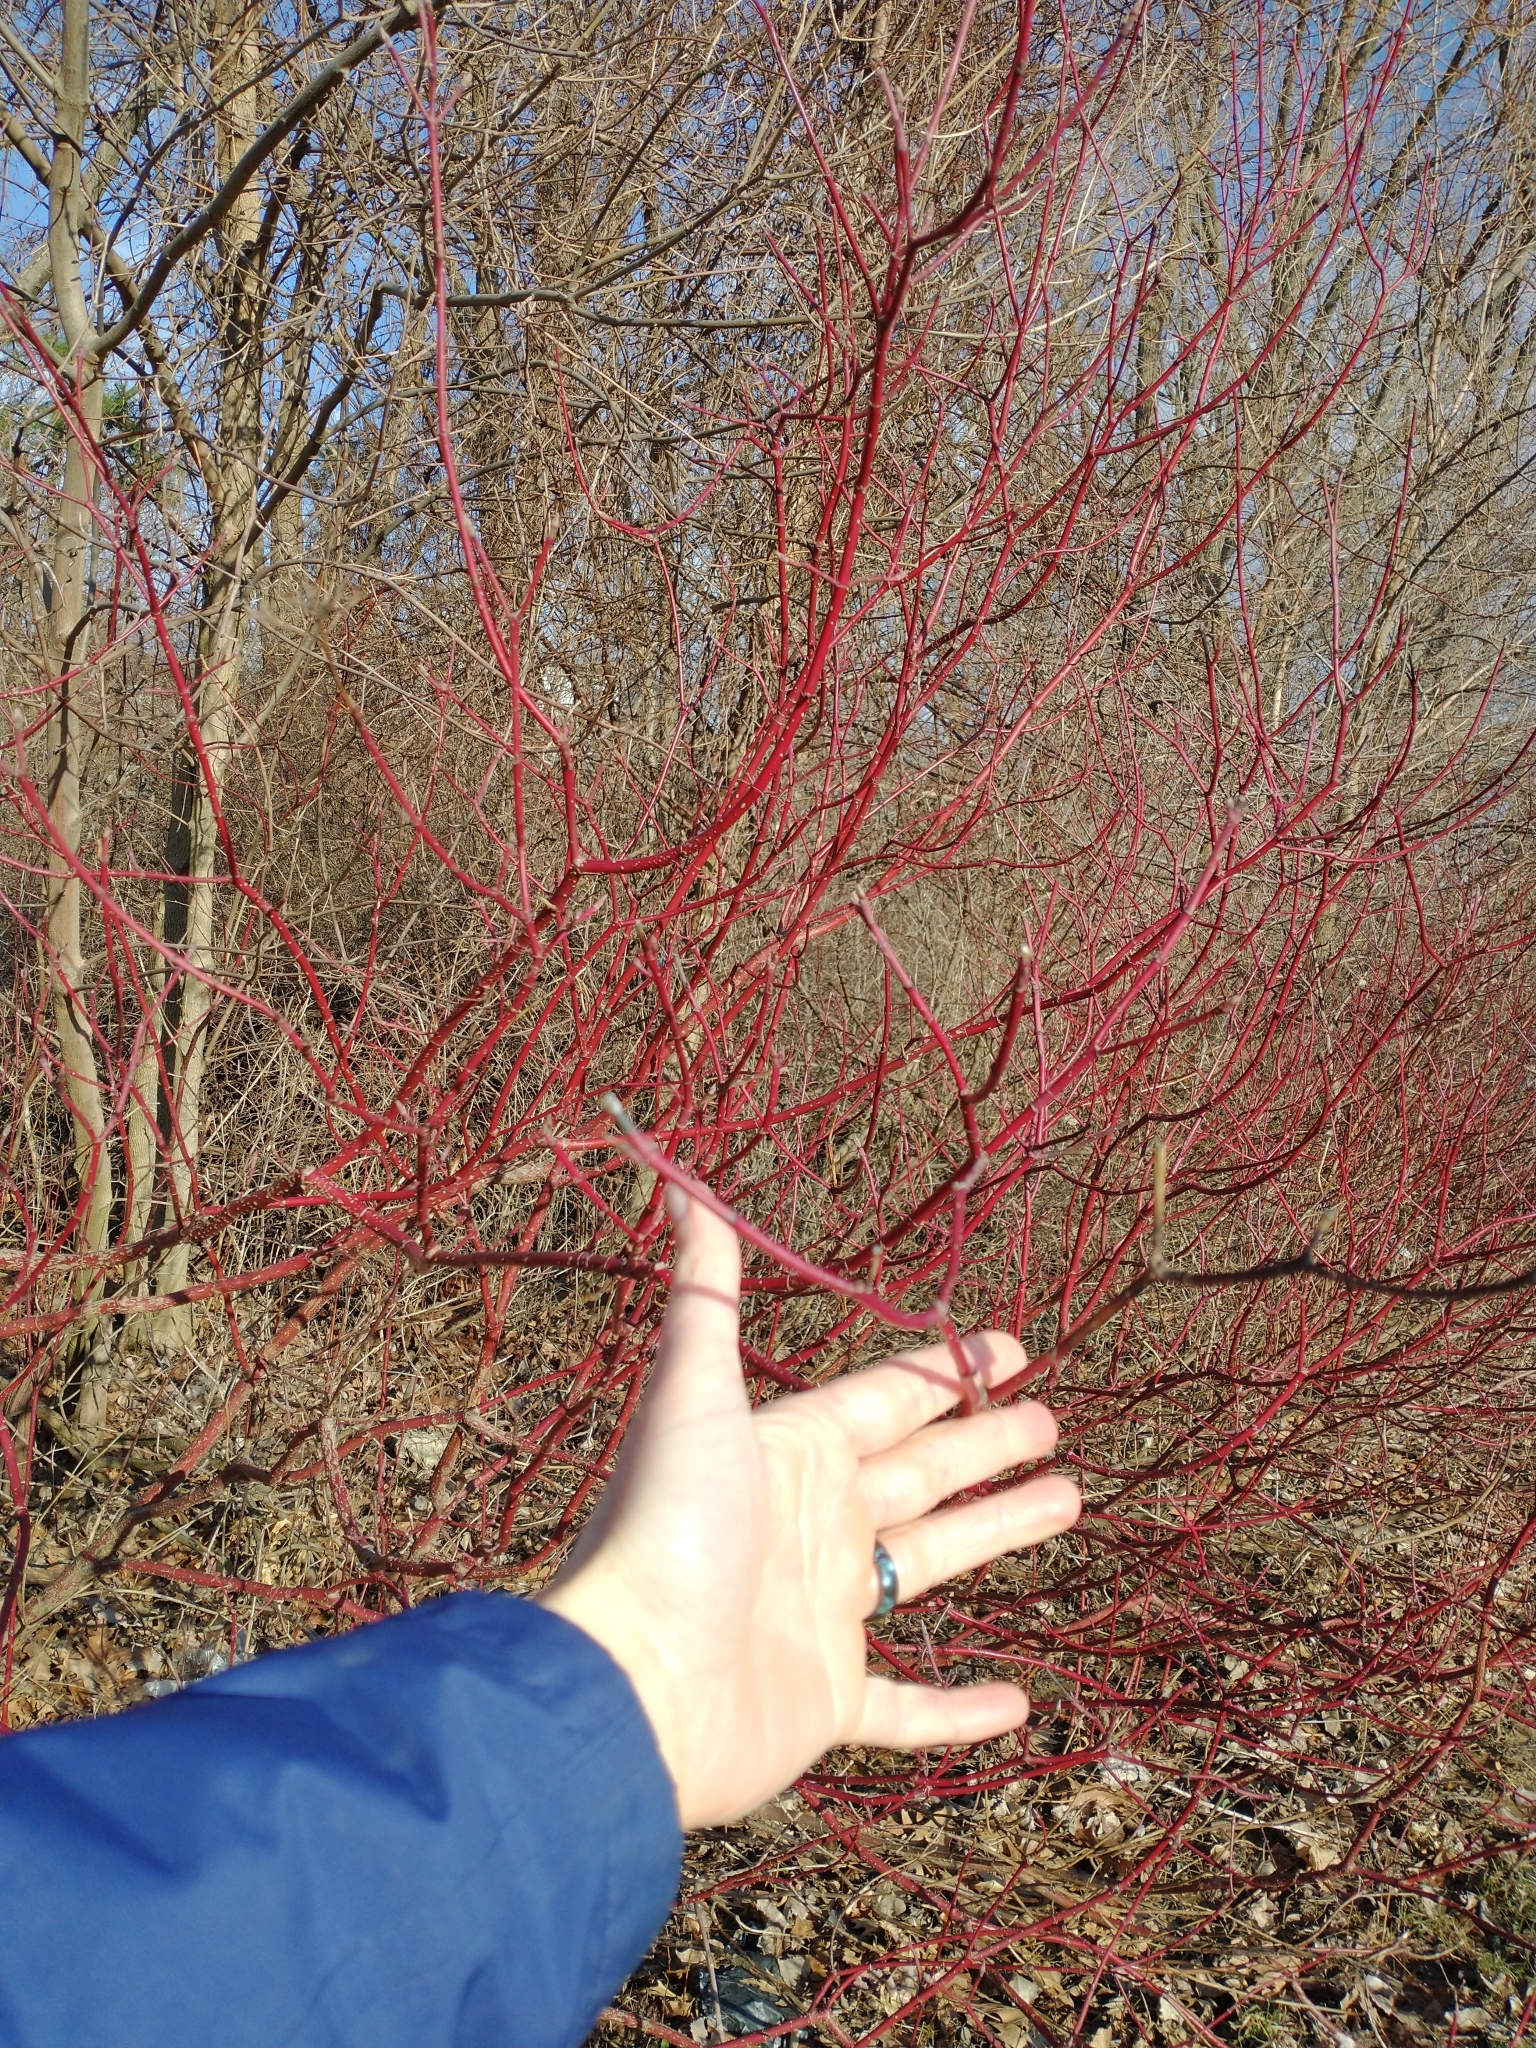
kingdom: Plantae
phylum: Tracheophyta
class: Magnoliopsida
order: Cornales
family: Cornaceae
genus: Cornus
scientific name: Cornus sericea
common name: Red-osier dogwood
